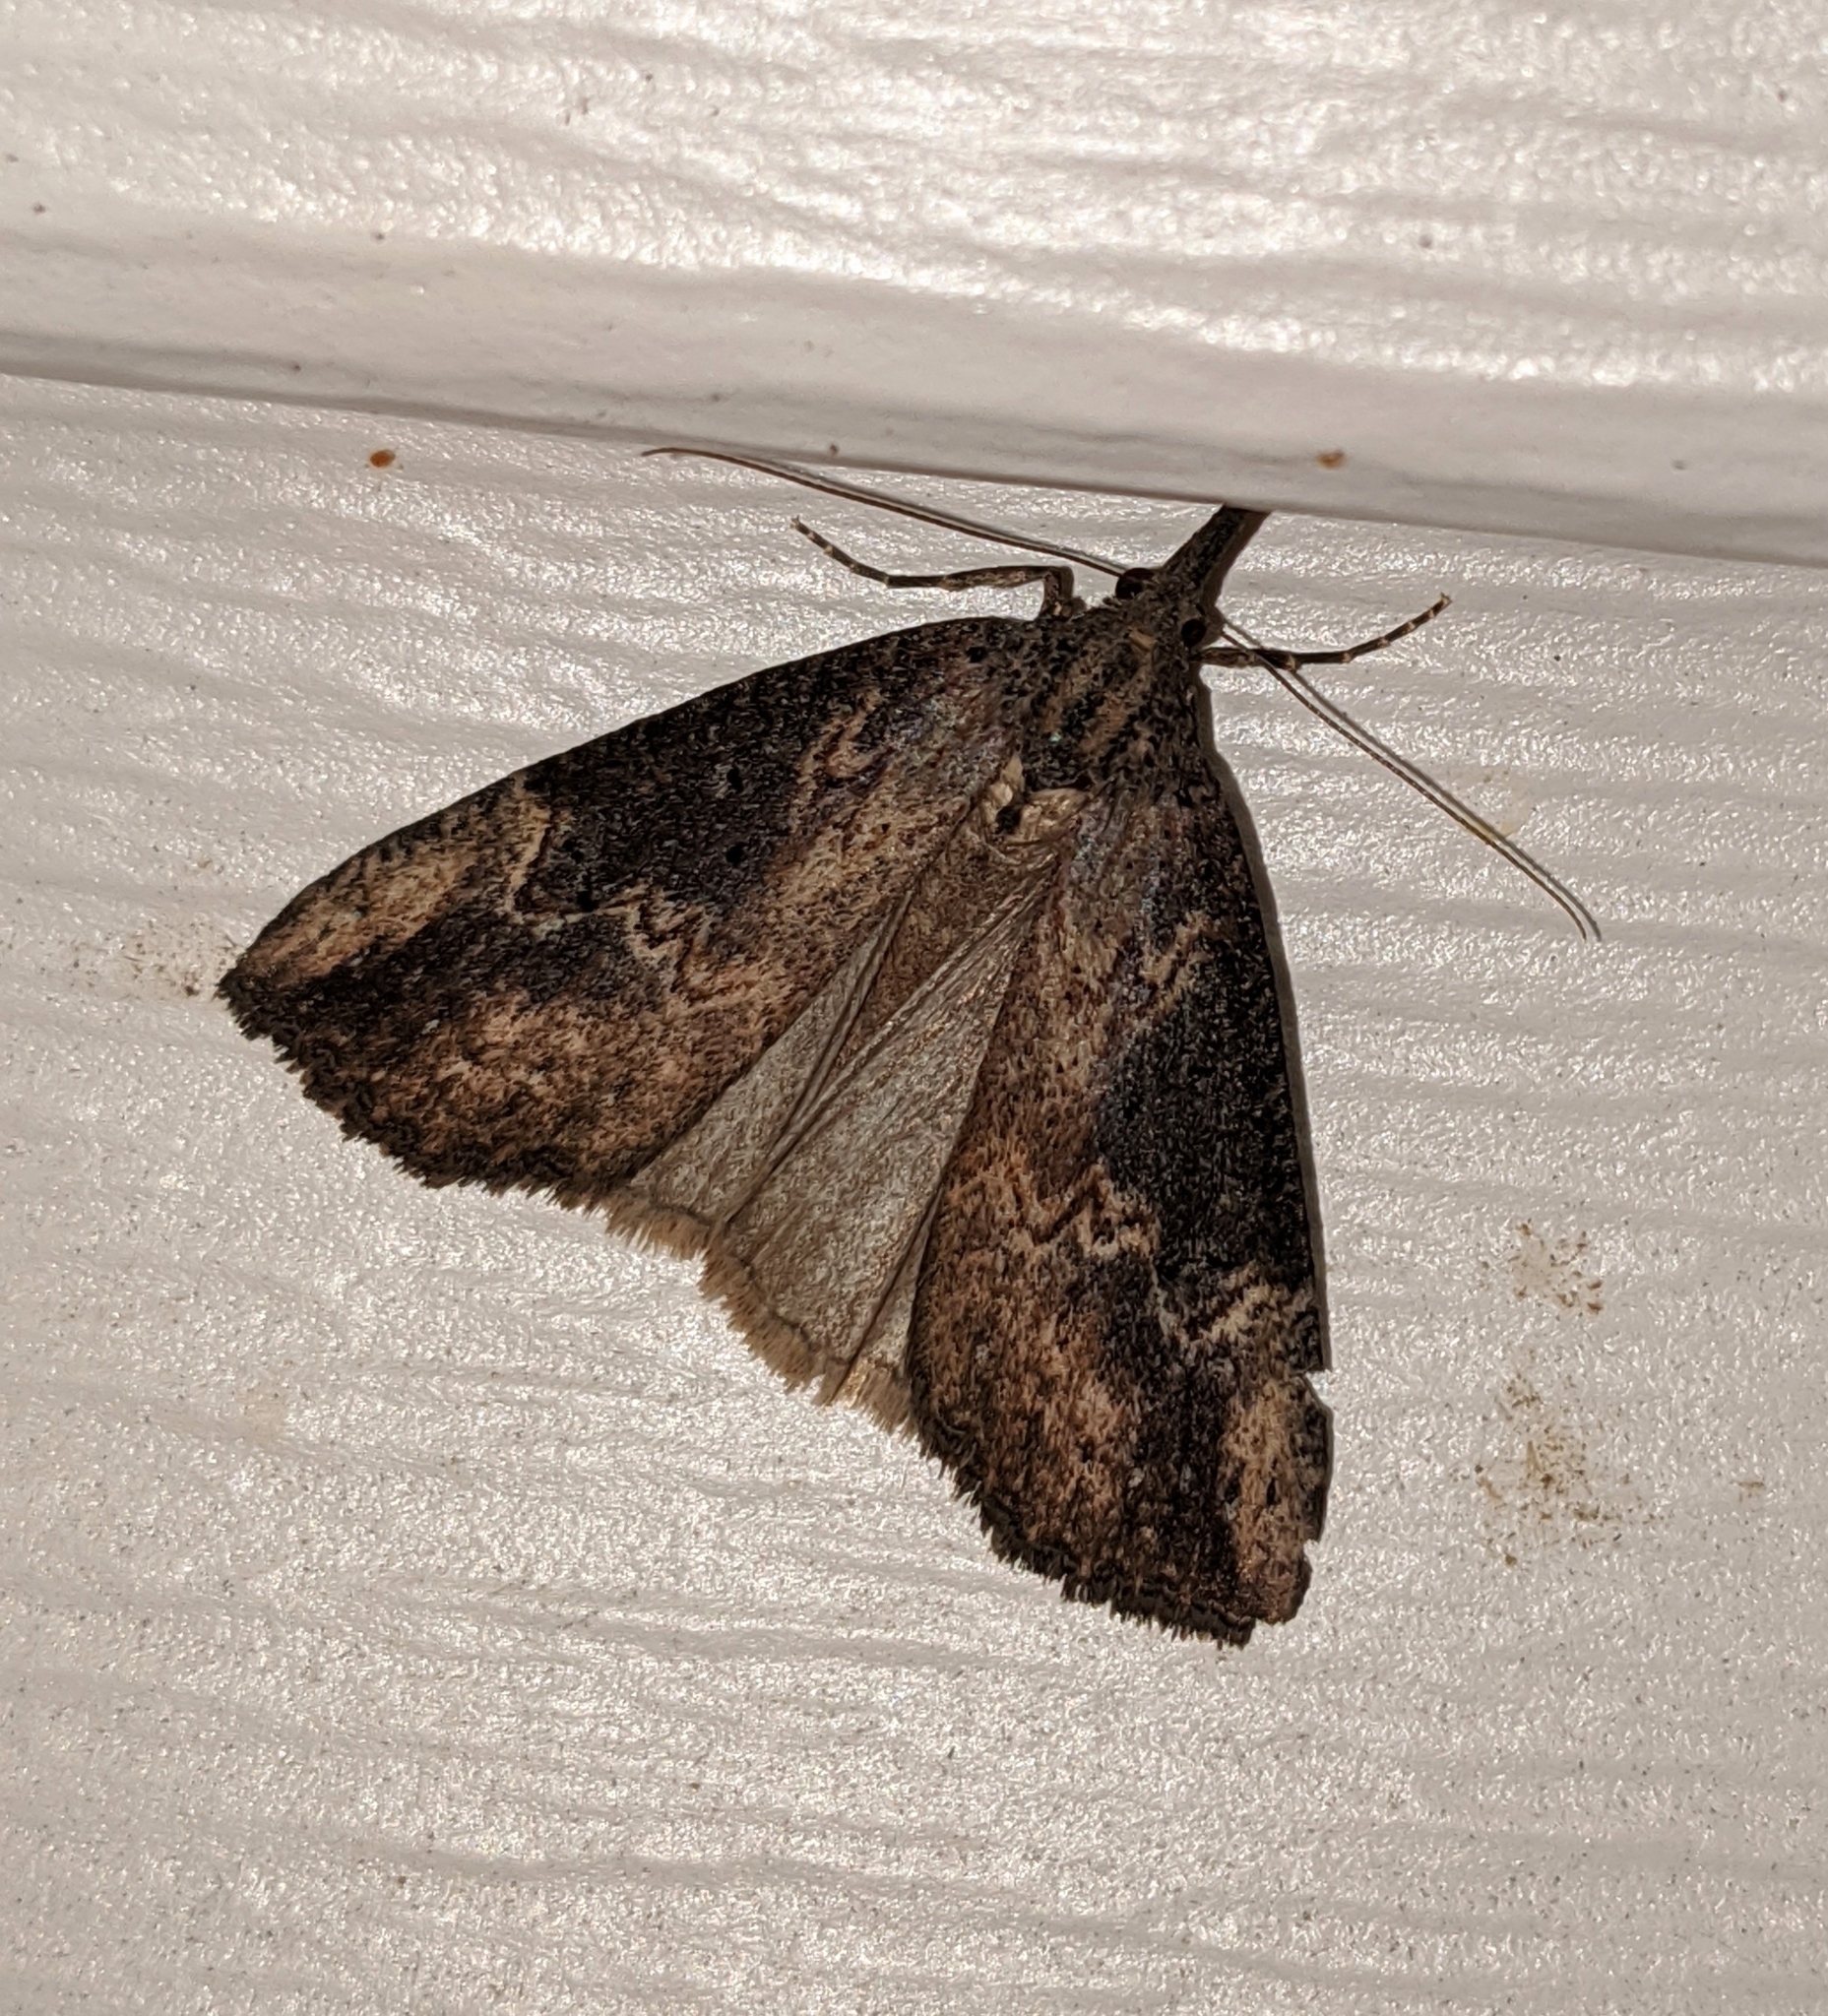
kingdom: Animalia
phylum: Arthropoda
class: Insecta
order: Lepidoptera
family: Erebidae
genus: Hypena
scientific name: Hypena humuli
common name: Hop vine snout
